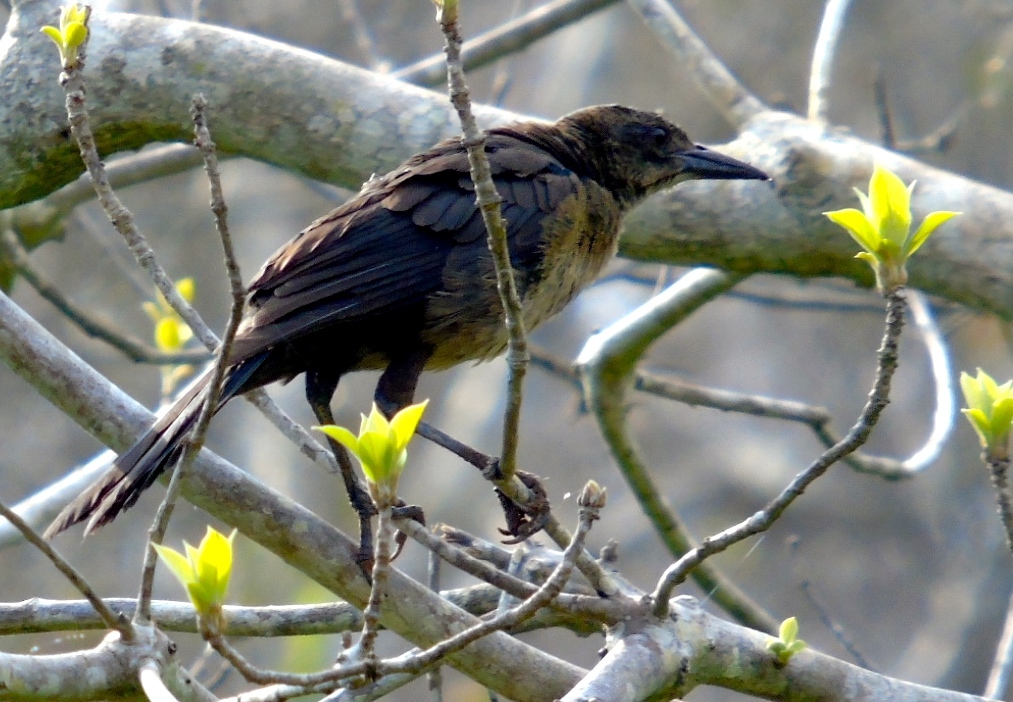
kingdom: Animalia
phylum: Chordata
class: Aves
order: Passeriformes
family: Icteridae
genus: Quiscalus
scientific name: Quiscalus mexicanus
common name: Great-tailed grackle
